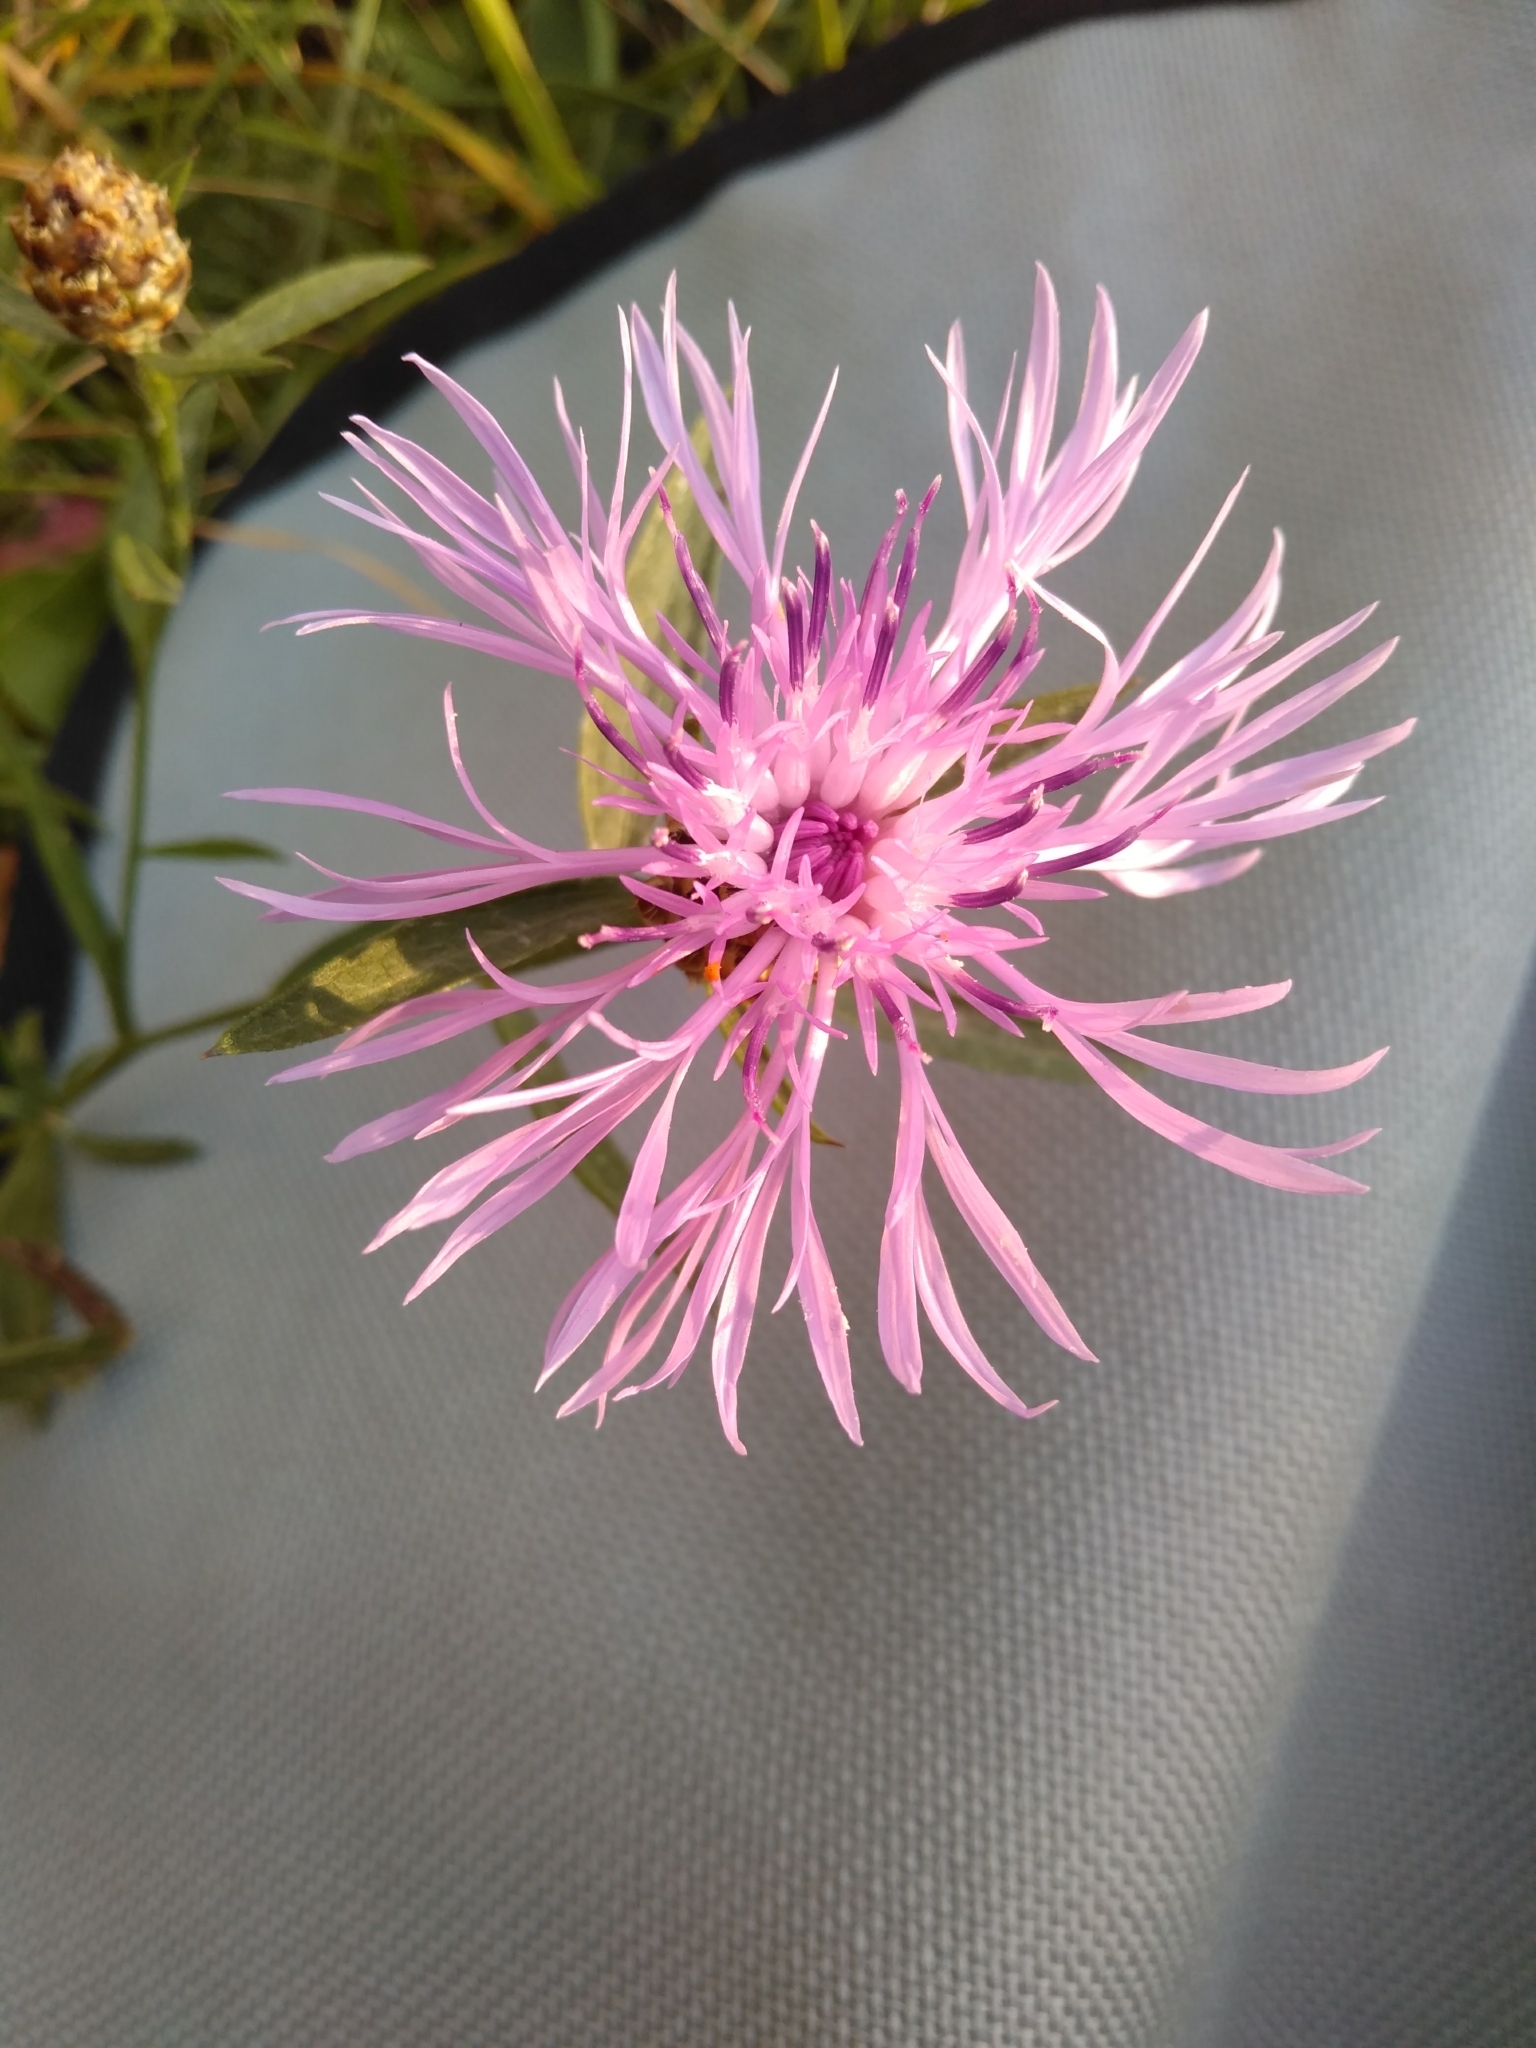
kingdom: Plantae
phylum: Tracheophyta
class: Magnoliopsida
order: Asterales
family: Asteraceae
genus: Centaurea
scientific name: Centaurea jacea
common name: Brown knapweed
